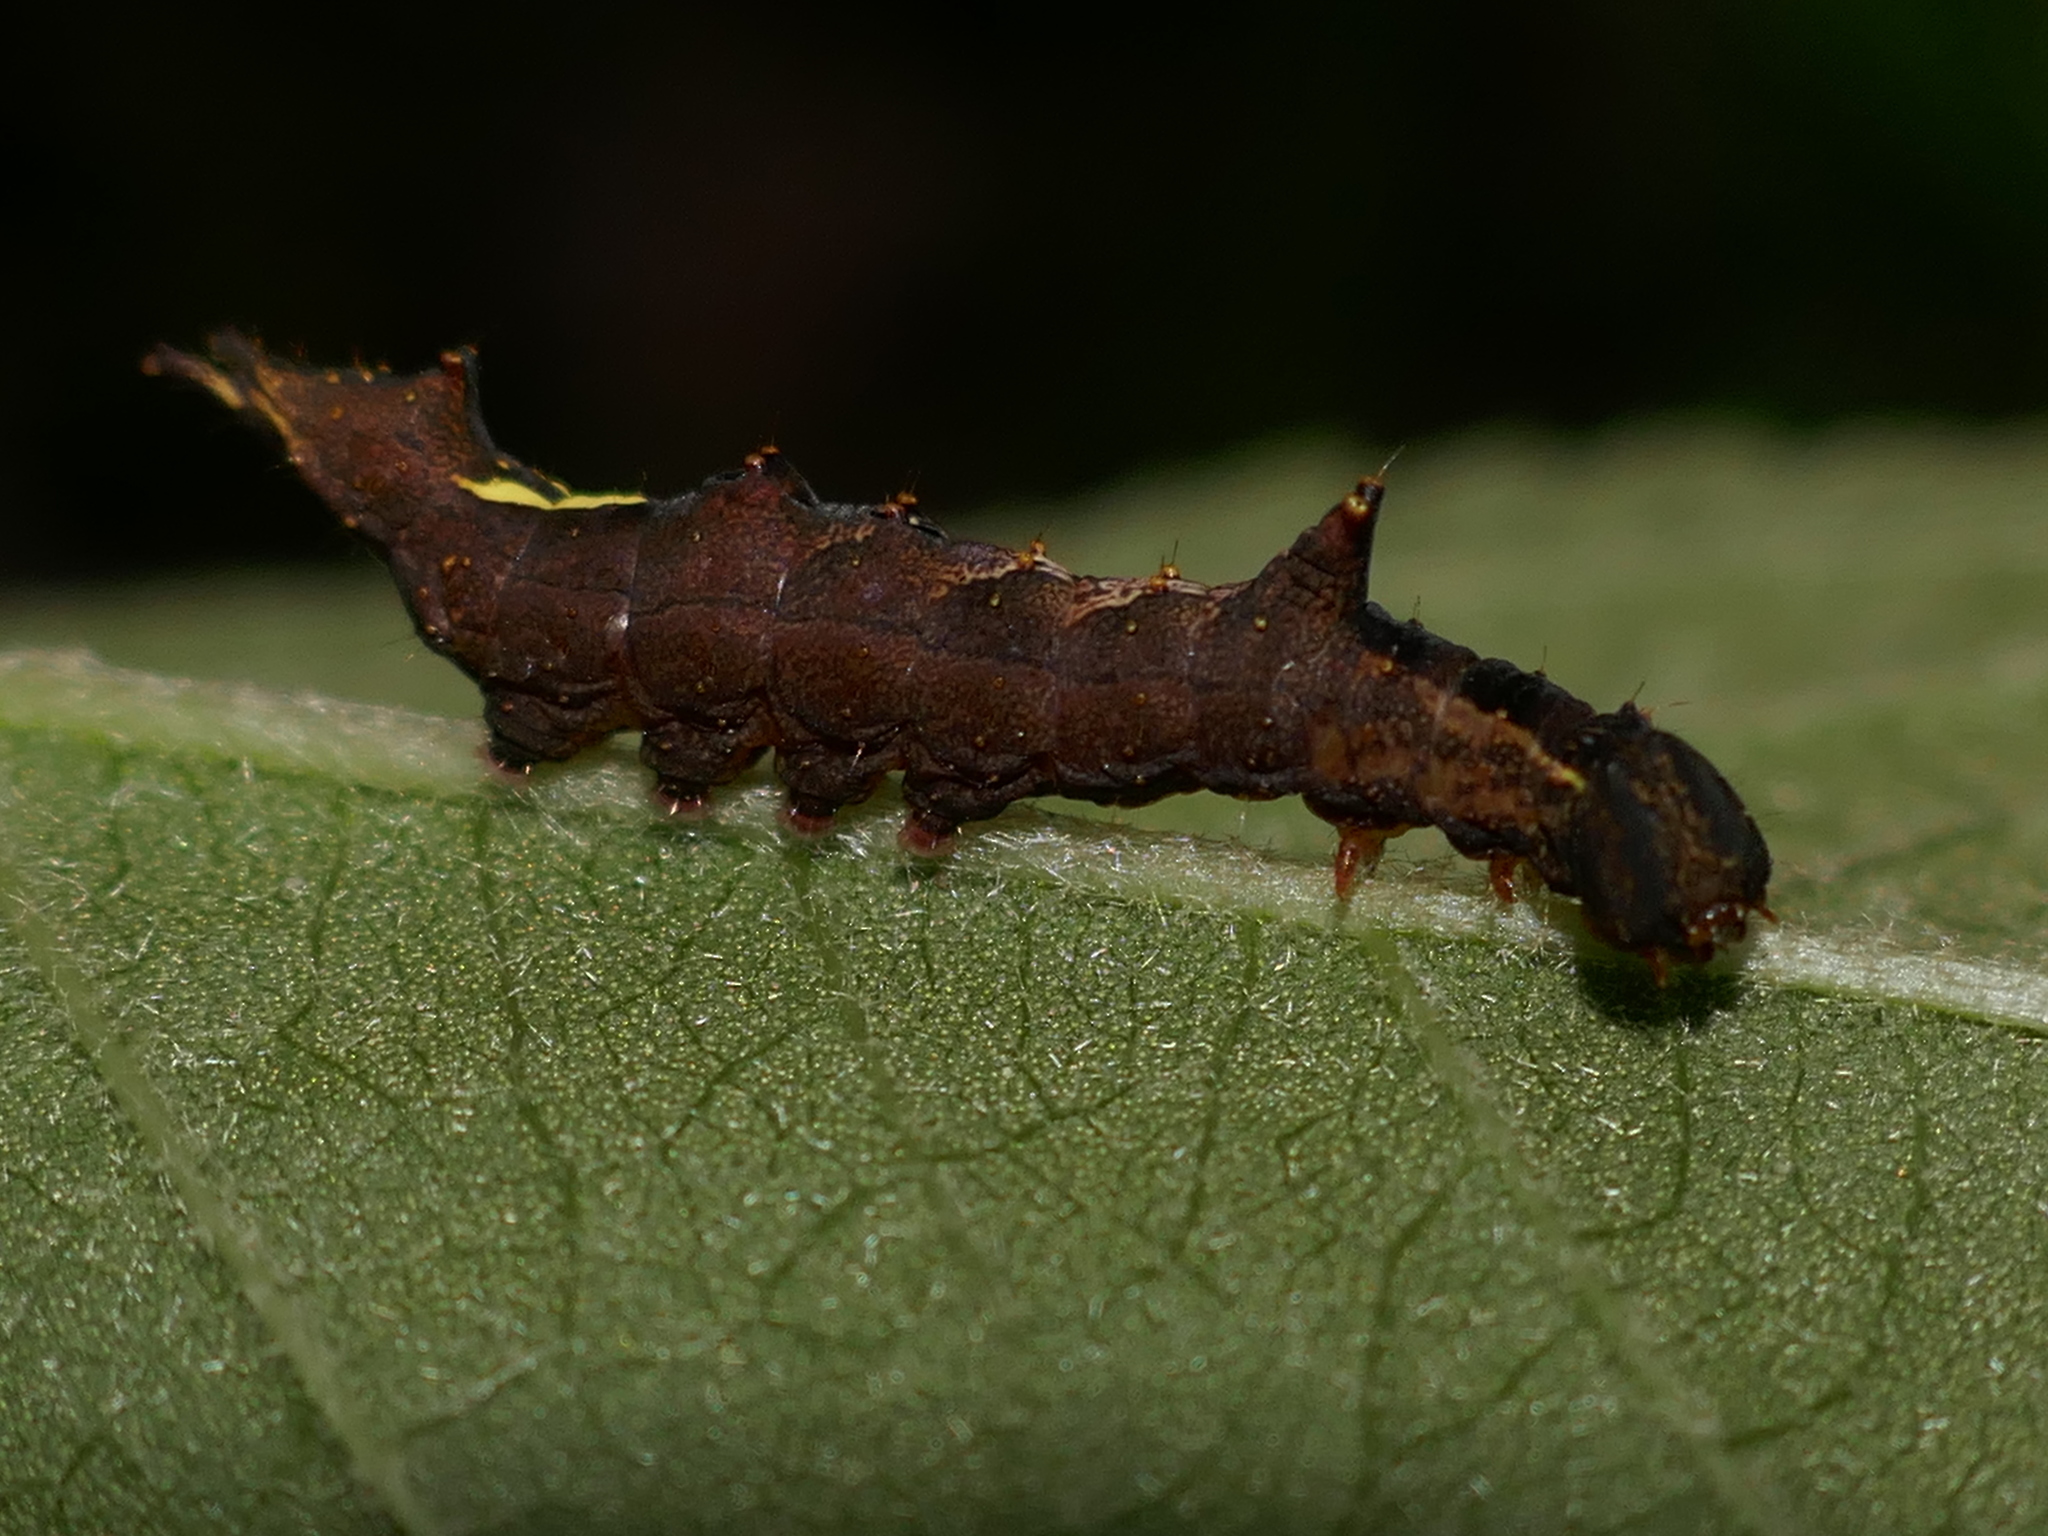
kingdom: Animalia
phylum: Arthropoda
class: Insecta
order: Lepidoptera
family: Notodontidae
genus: Schizura
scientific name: Schizura
